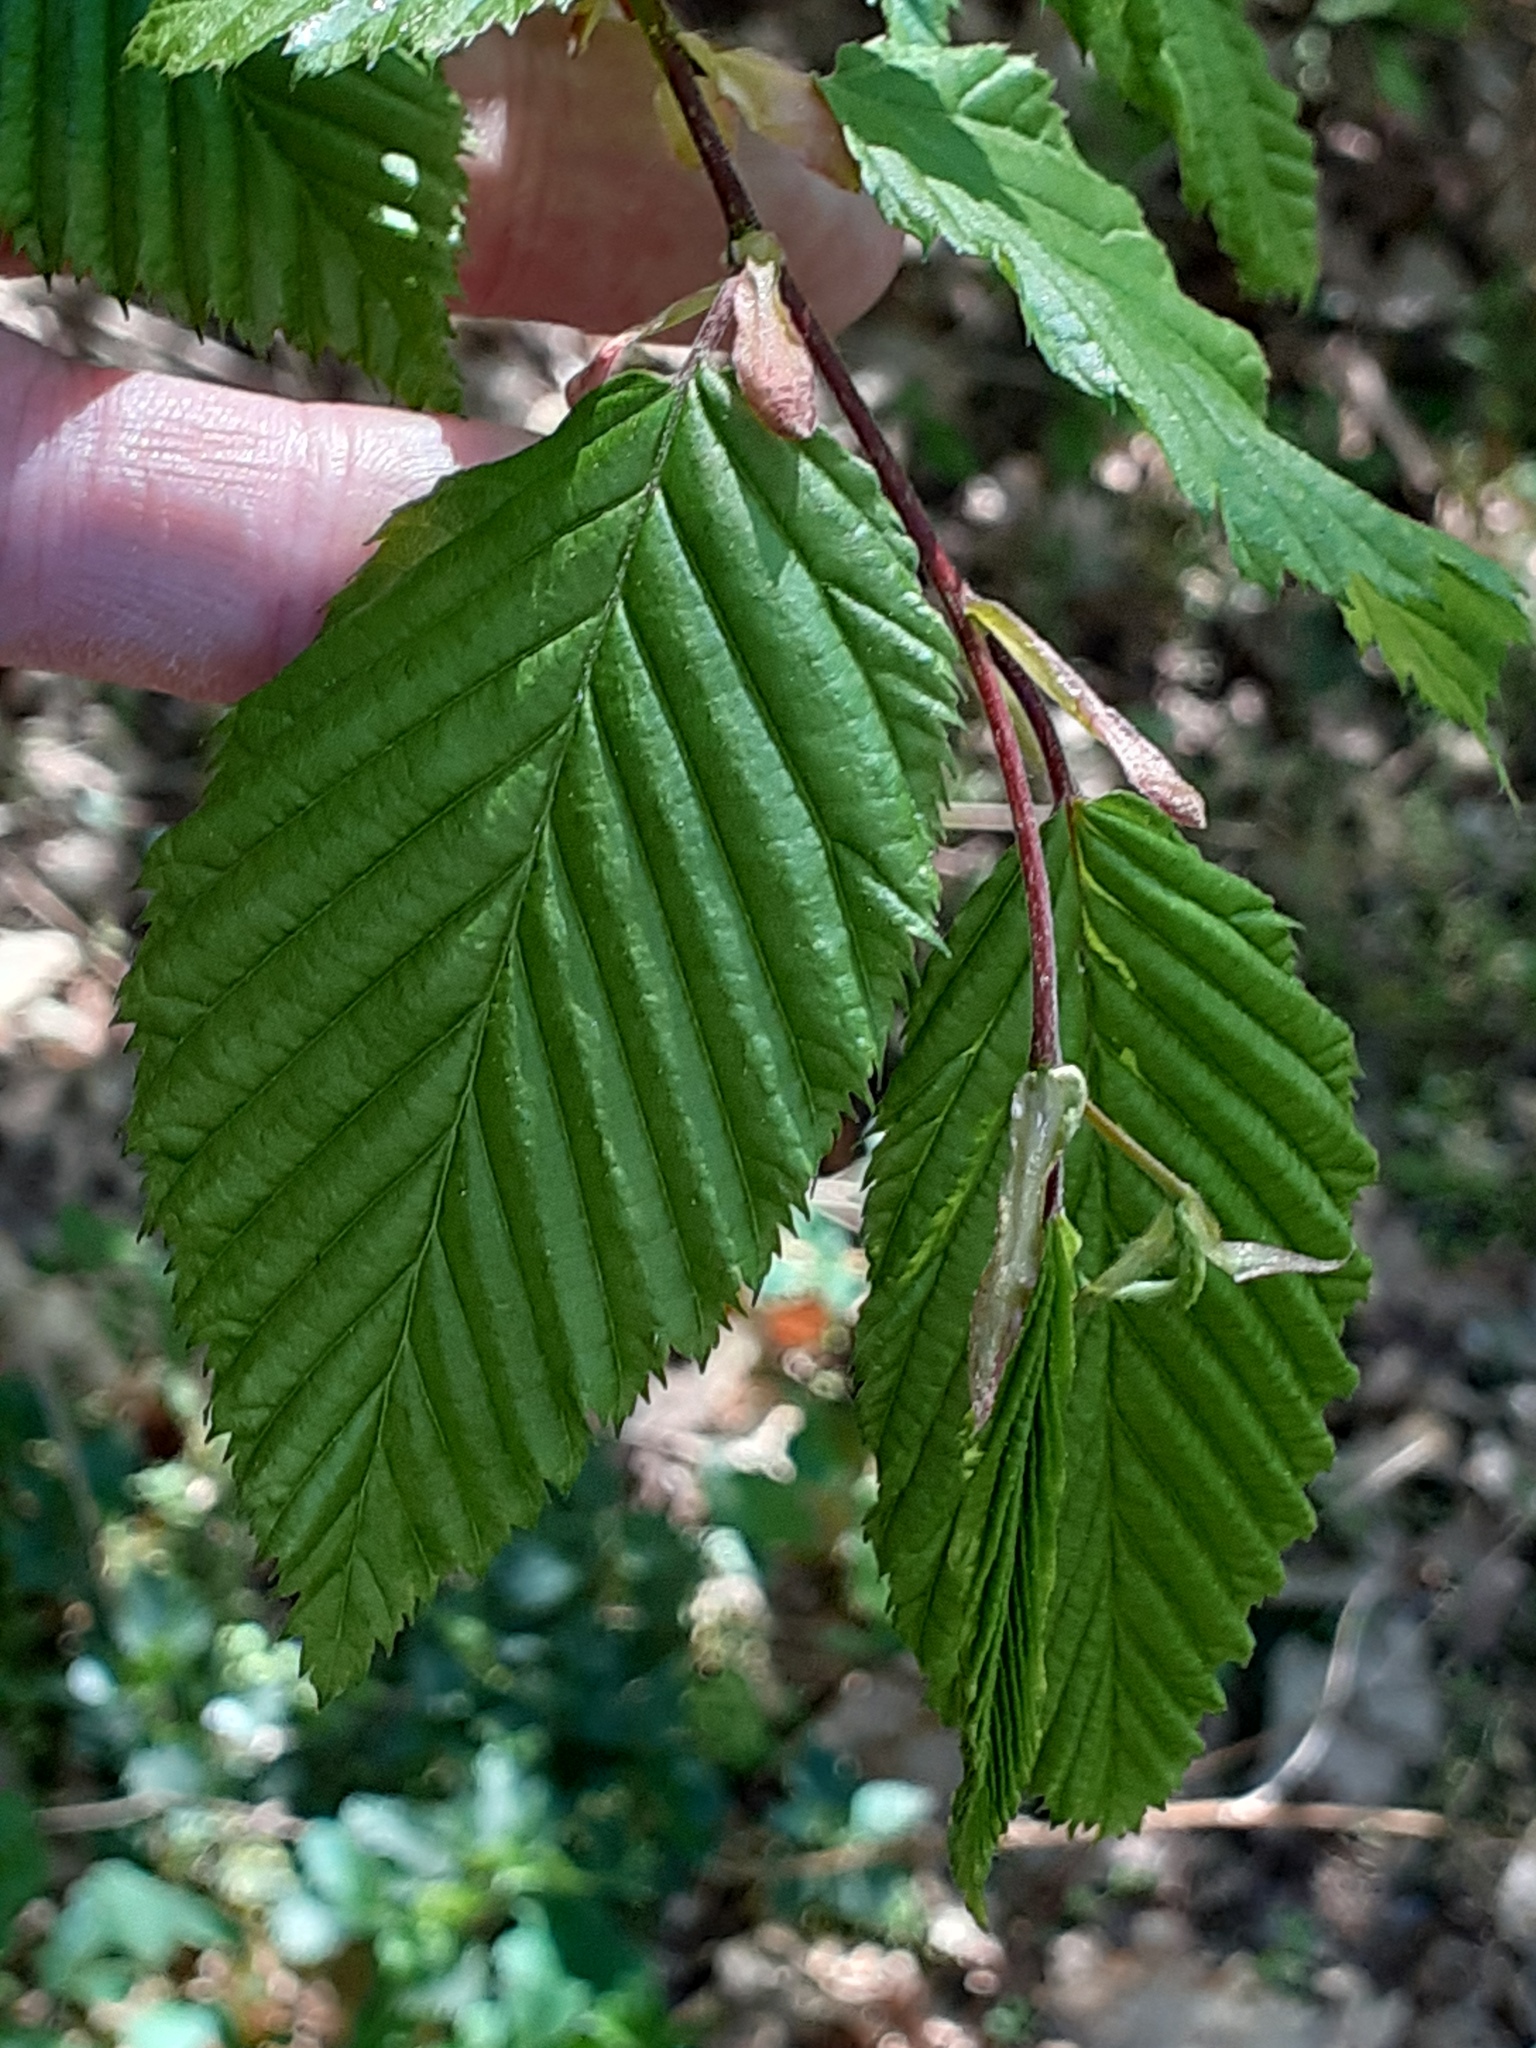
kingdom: Plantae
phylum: Tracheophyta
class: Magnoliopsida
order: Fagales
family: Betulaceae
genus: Carpinus
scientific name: Carpinus betulus
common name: Hornbeam
